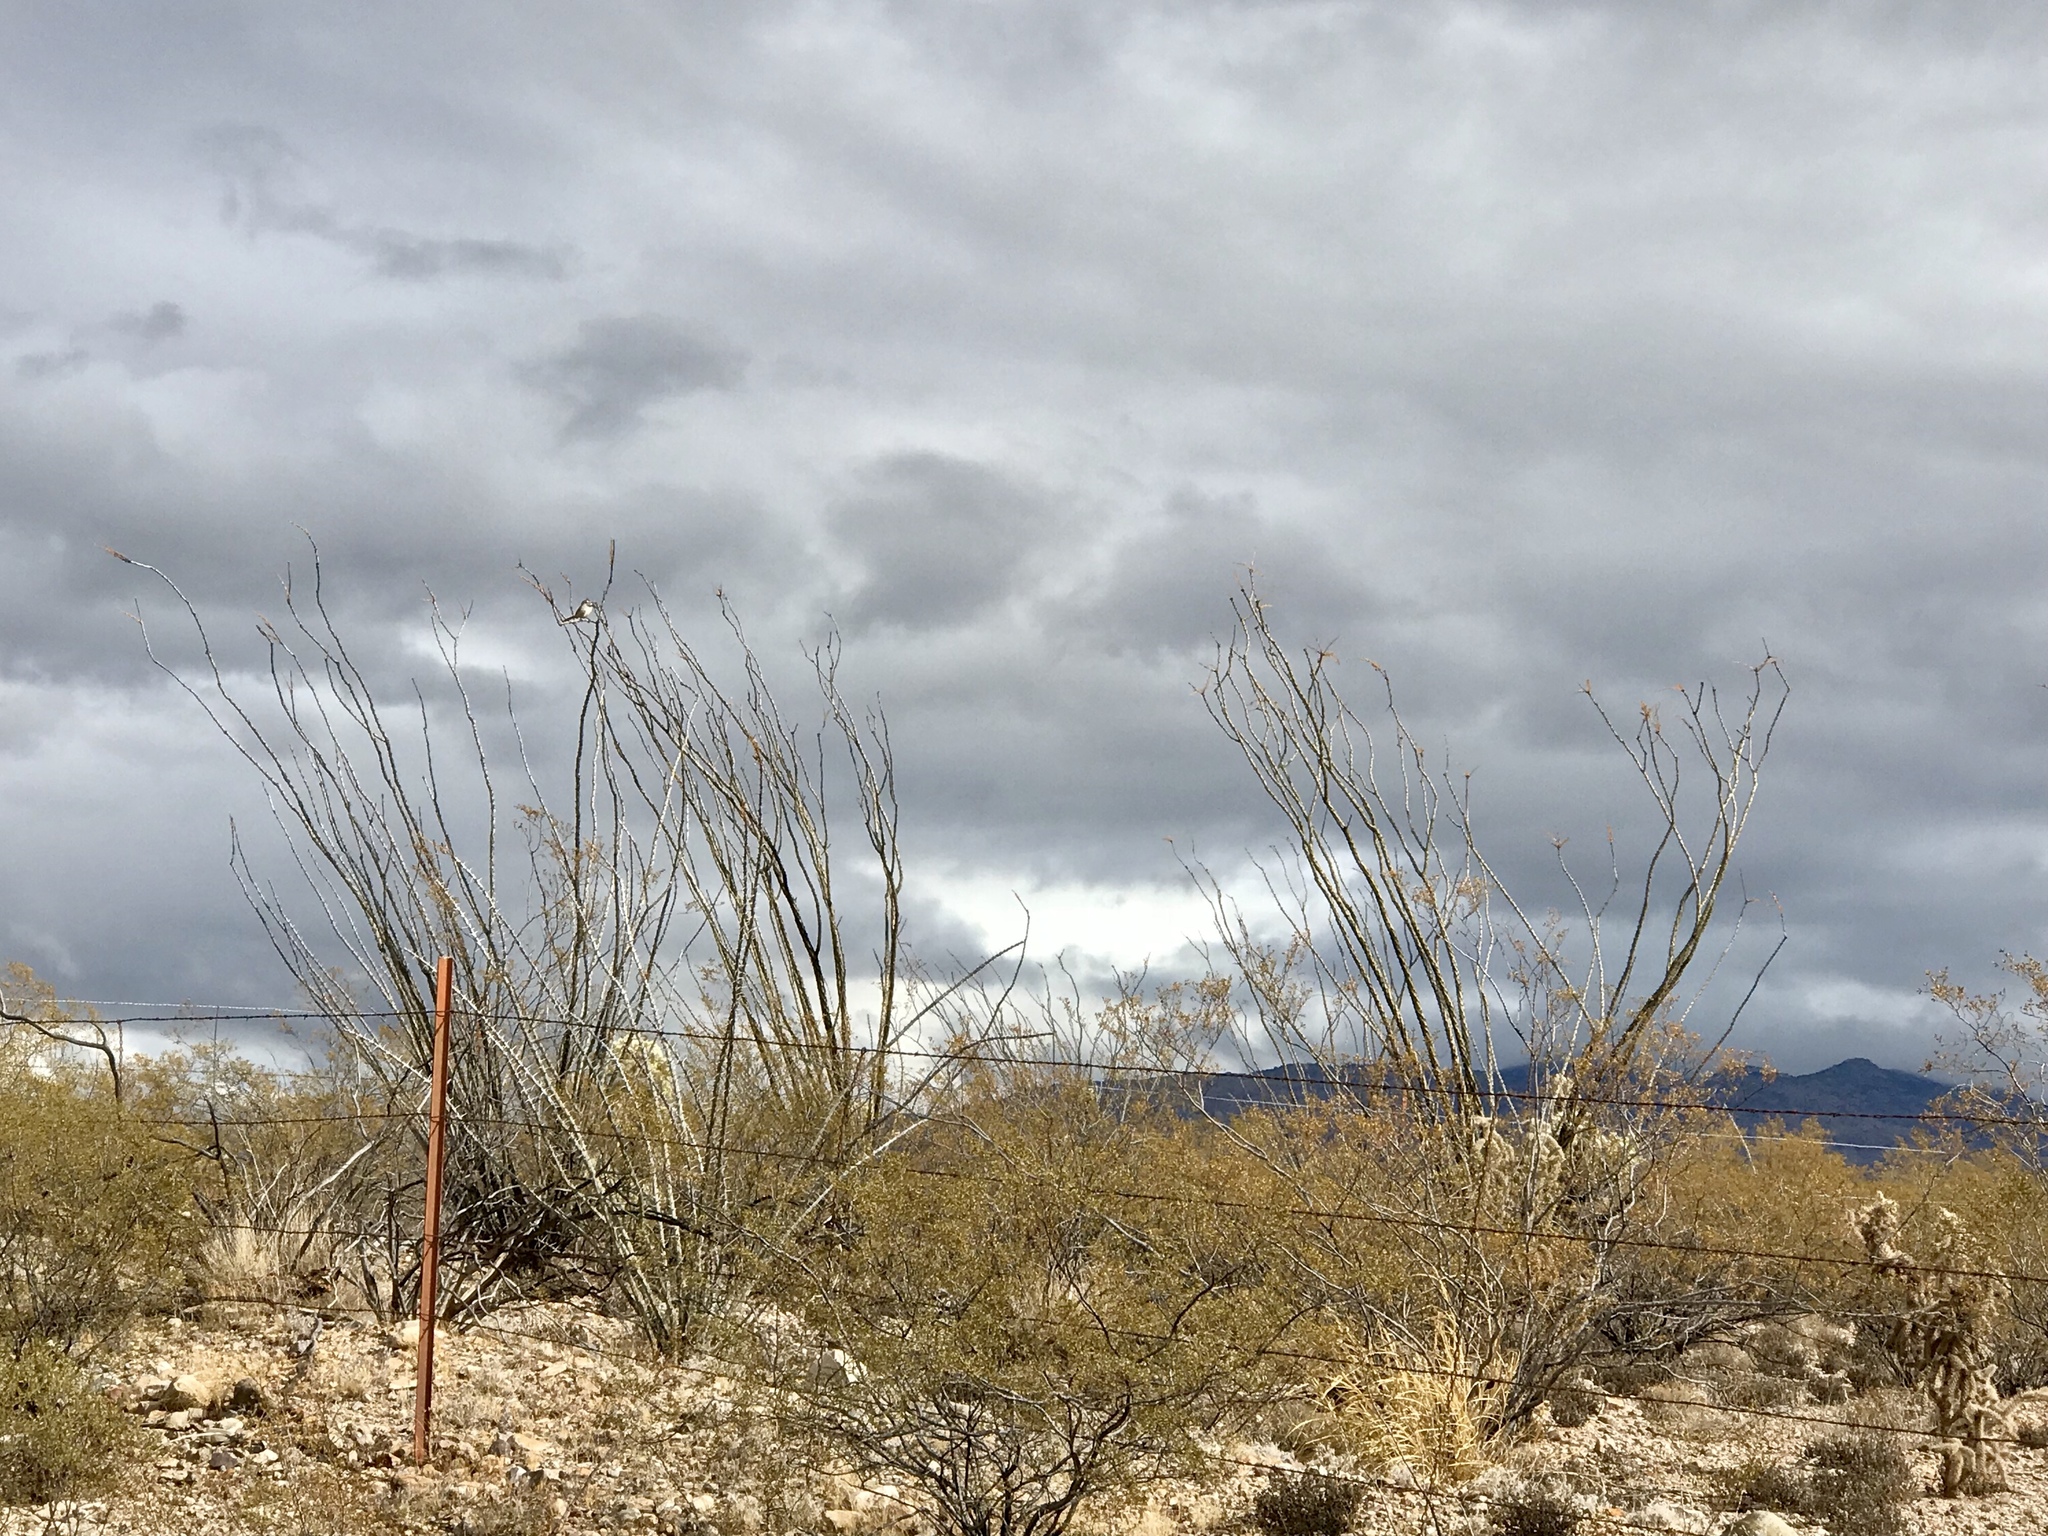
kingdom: Plantae
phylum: Tracheophyta
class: Magnoliopsida
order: Ericales
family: Fouquieriaceae
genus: Fouquieria
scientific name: Fouquieria splendens
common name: Vine-cactus
